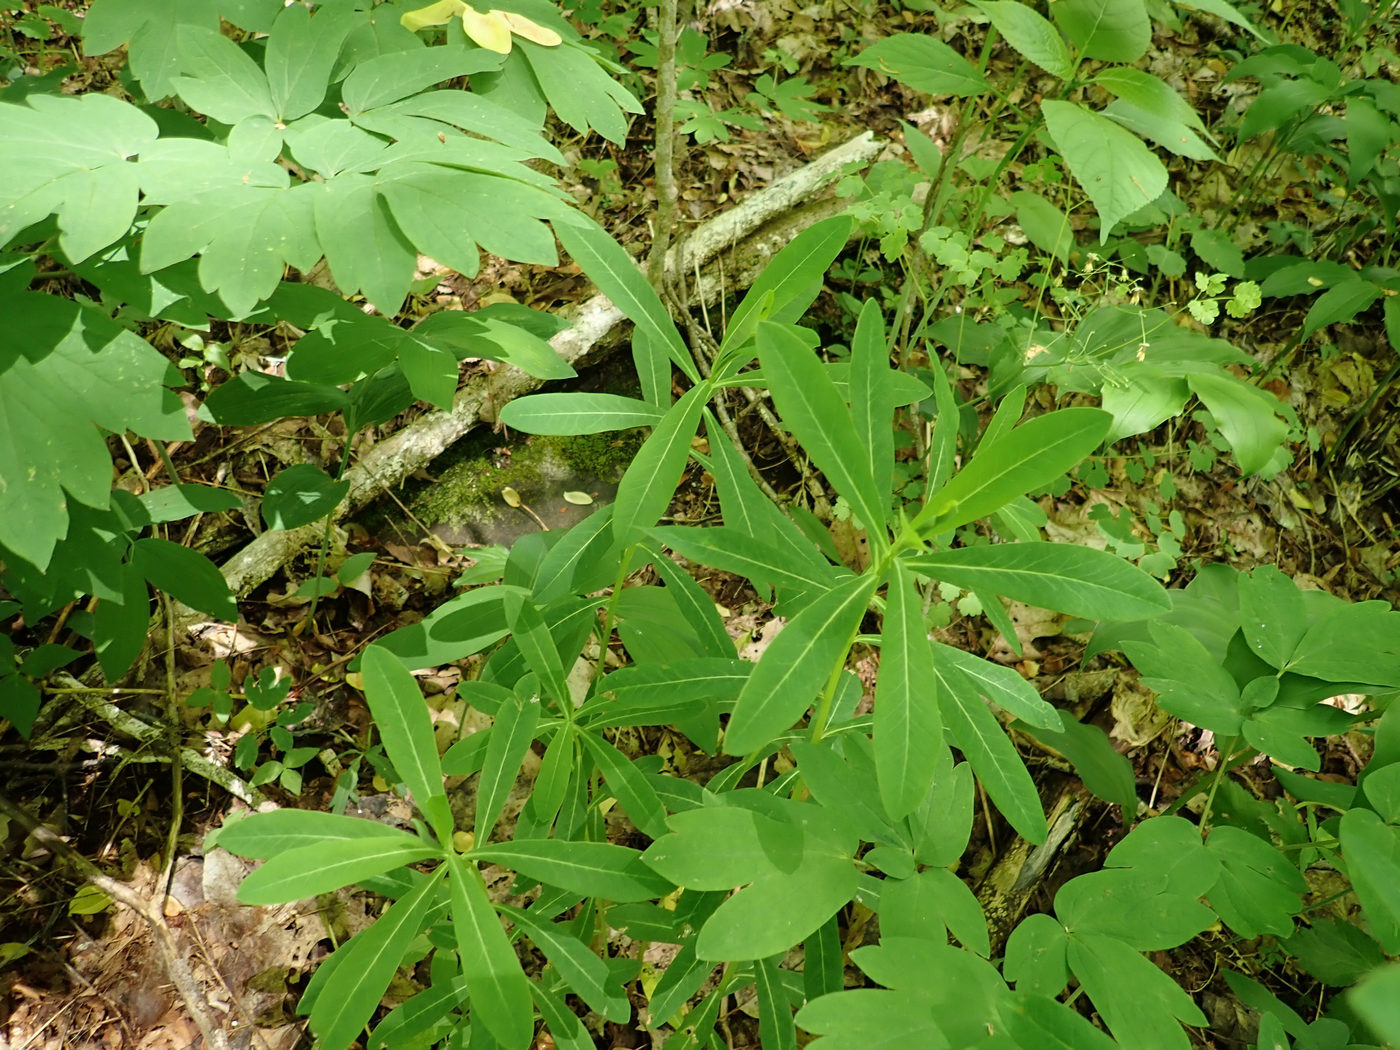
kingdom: Plantae
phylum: Tracheophyta
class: Magnoliopsida
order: Malpighiales
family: Euphorbiaceae
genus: Euphorbia
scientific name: Euphorbia purpurea
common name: Darlington's spurge
